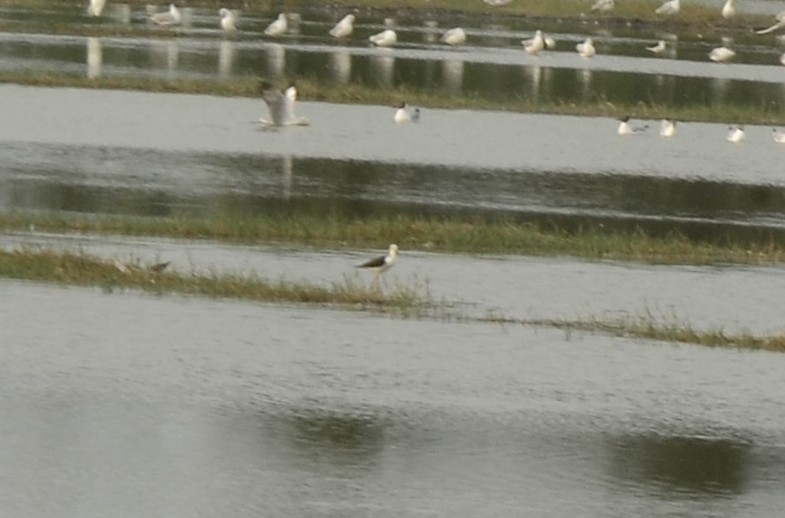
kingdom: Animalia
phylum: Chordata
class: Aves
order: Charadriiformes
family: Recurvirostridae
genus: Himantopus
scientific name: Himantopus himantopus
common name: Black-winged stilt
